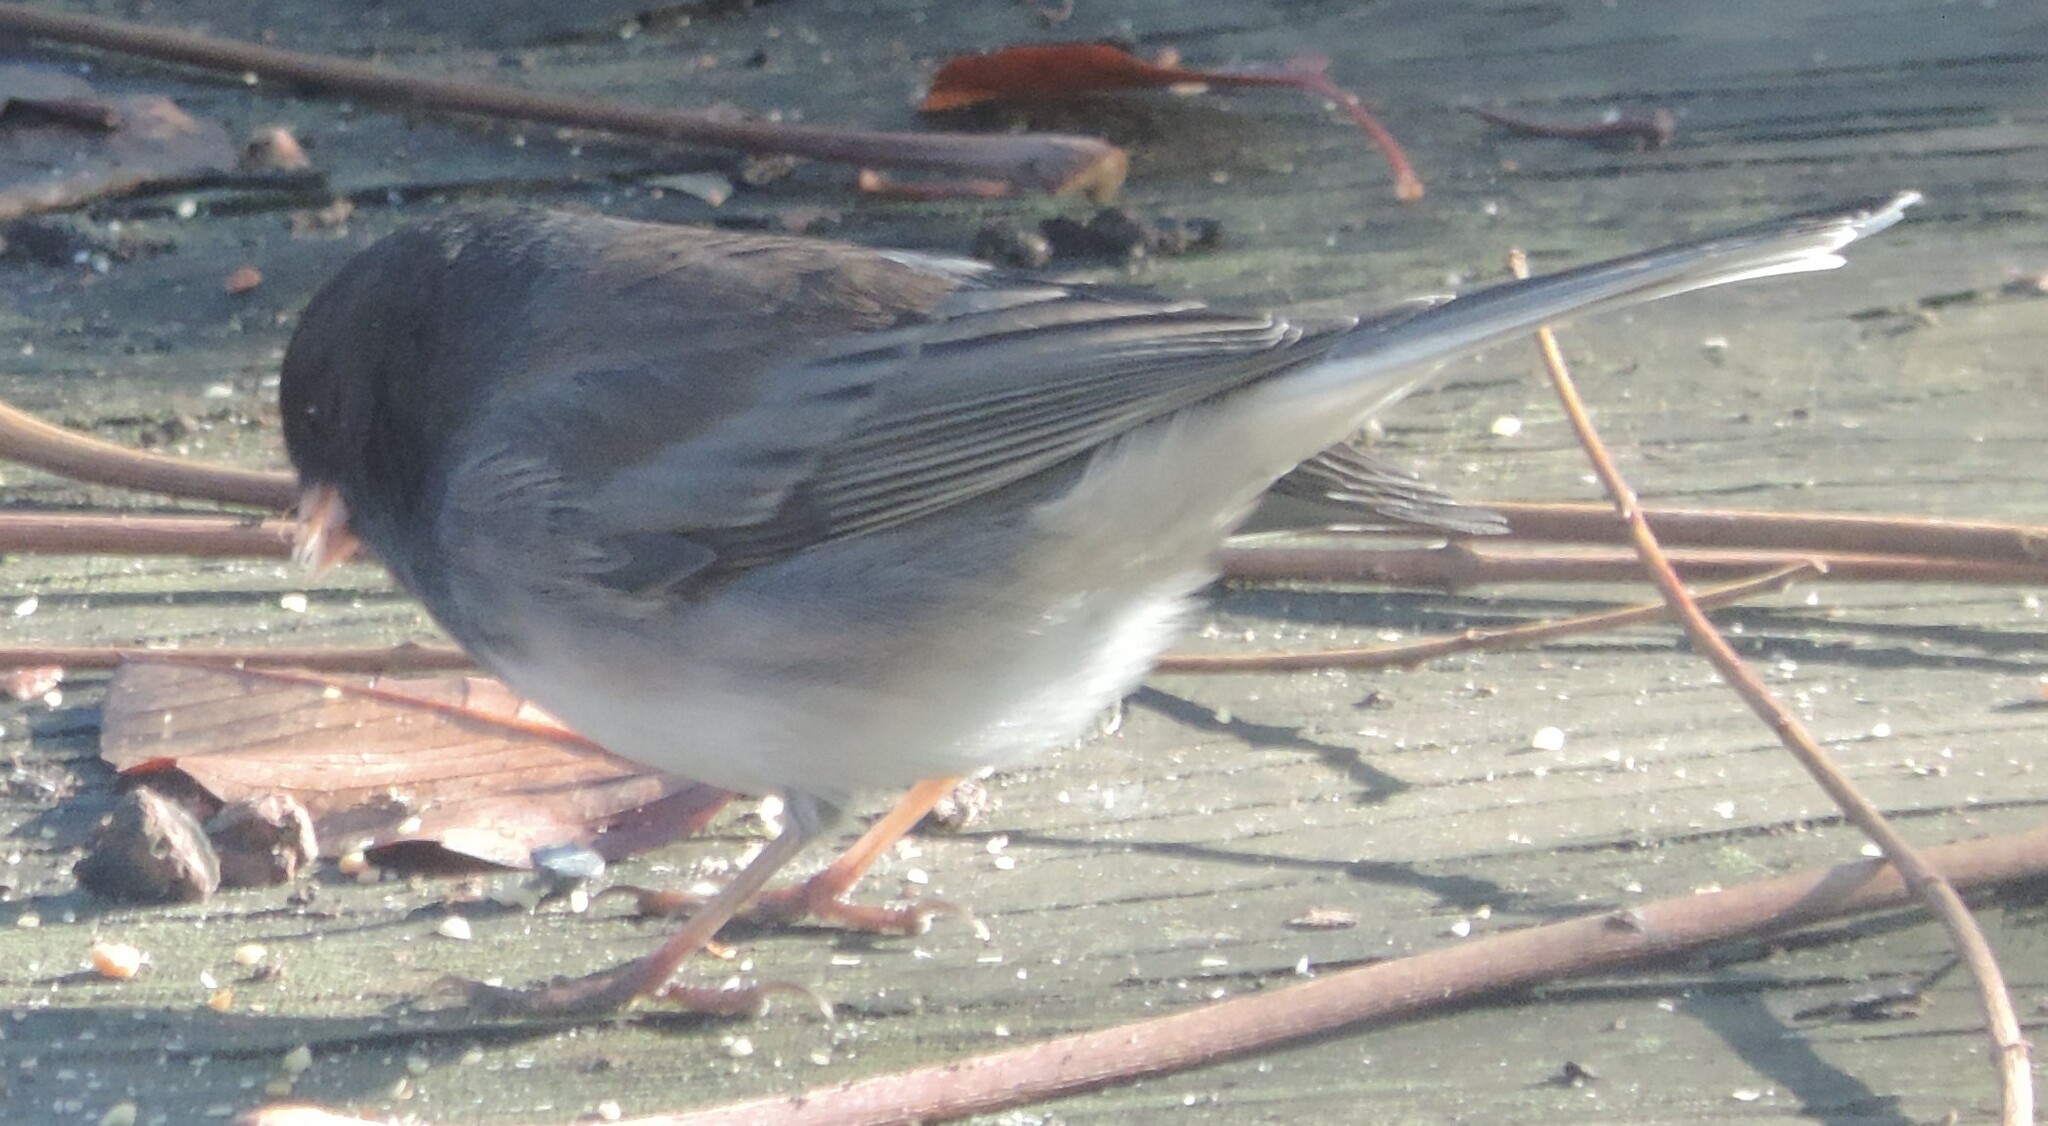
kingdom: Animalia
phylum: Chordata
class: Aves
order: Passeriformes
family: Passerellidae
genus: Junco
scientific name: Junco hyemalis
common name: Dark-eyed junco
